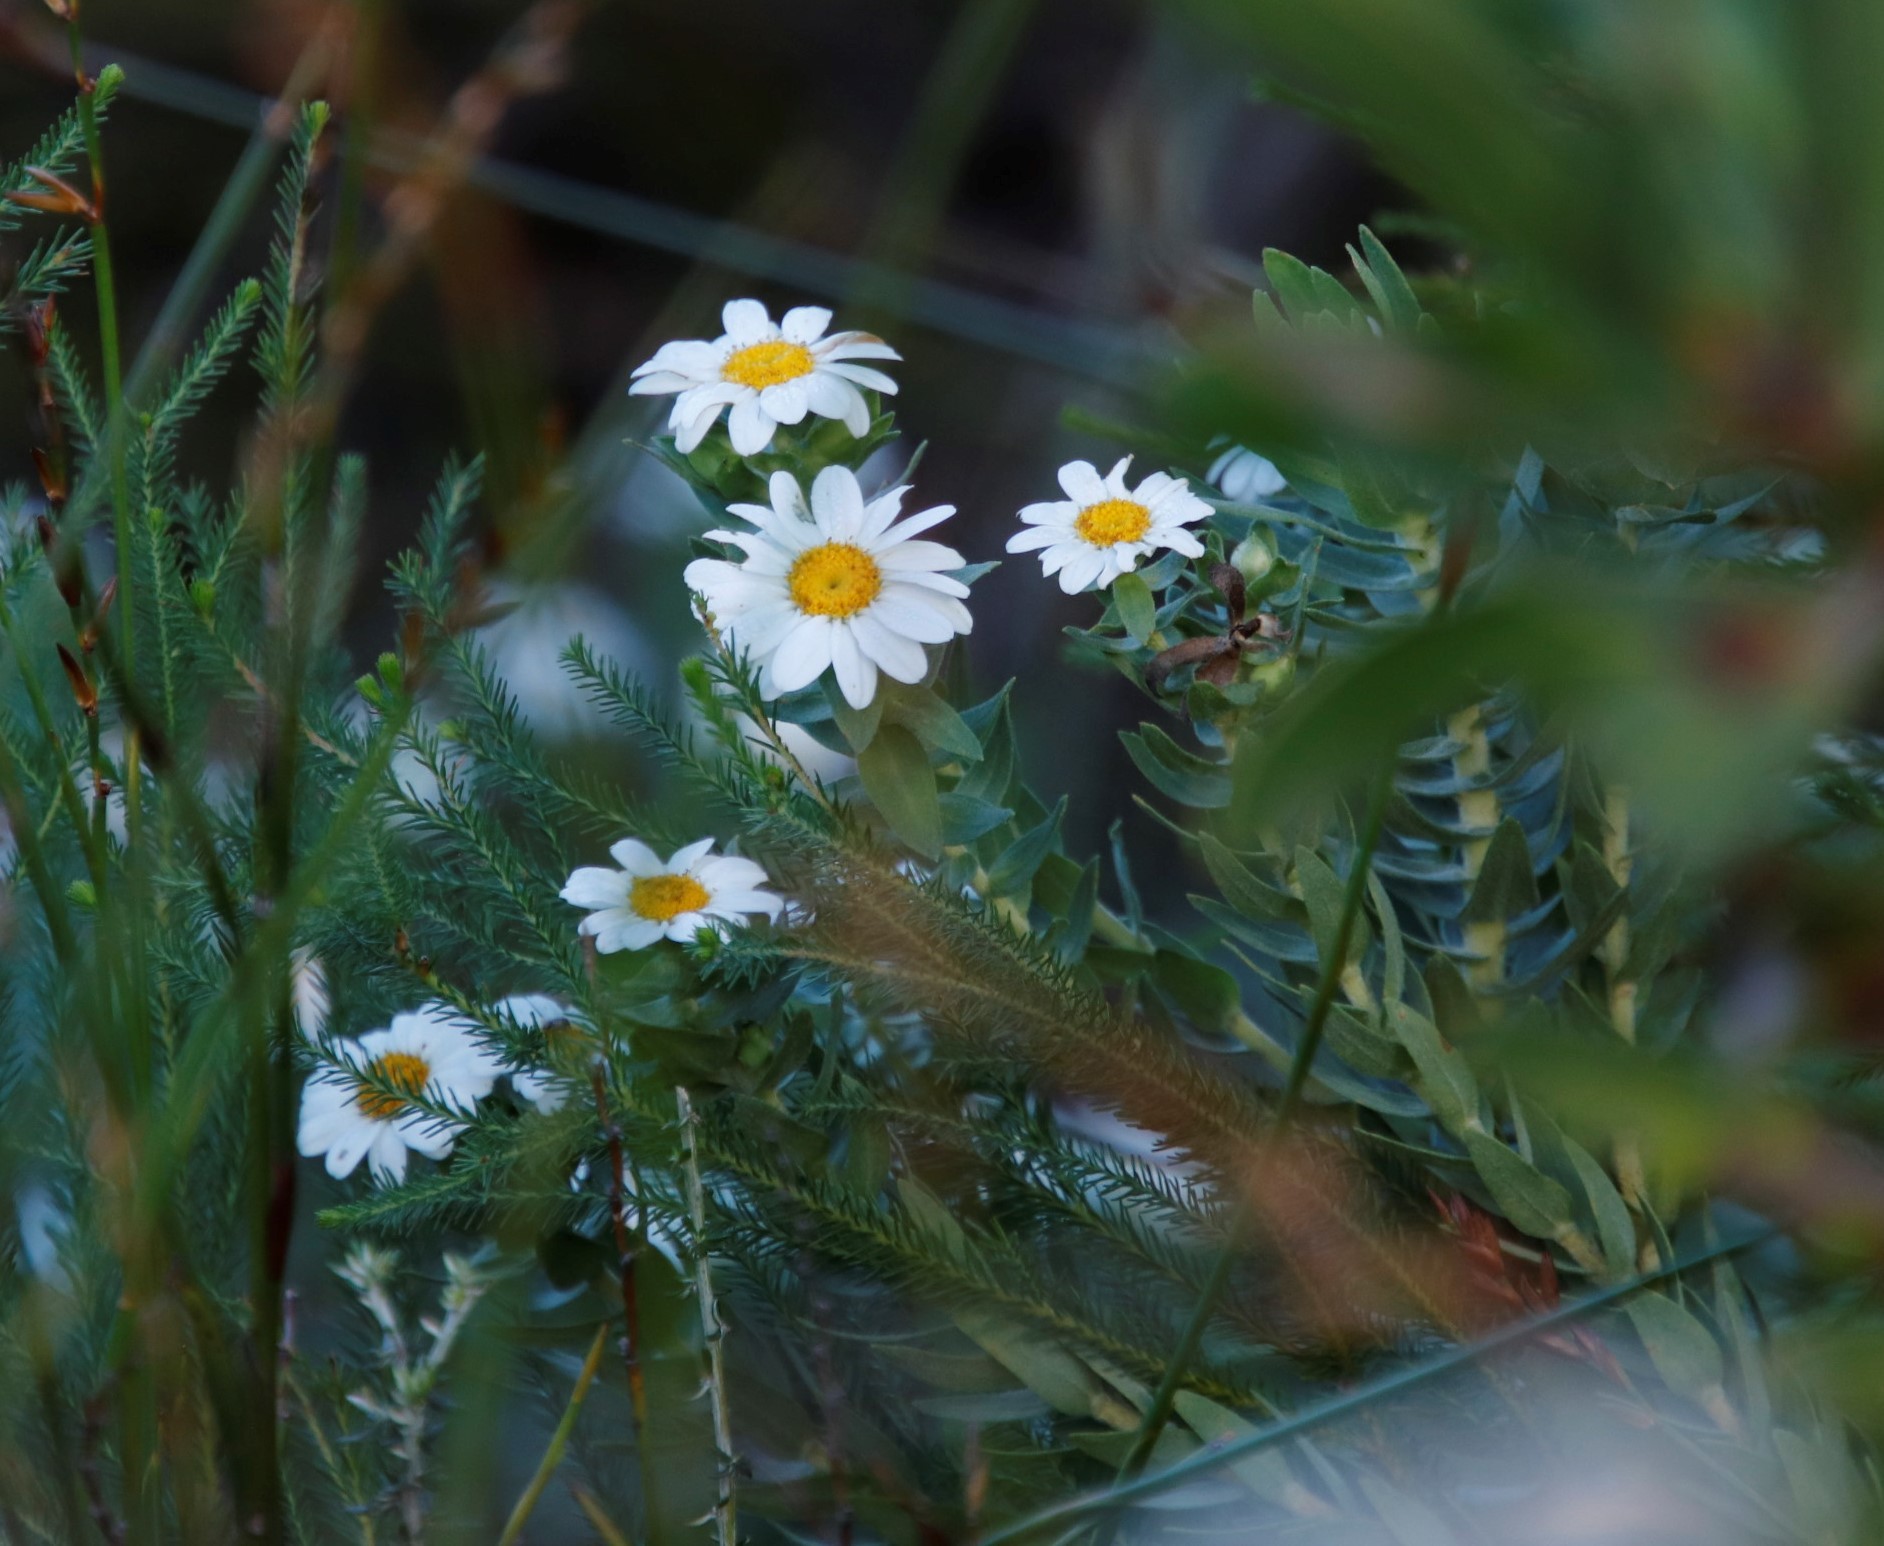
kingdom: Plantae
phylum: Tracheophyta
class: Magnoliopsida
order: Asterales
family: Asteraceae
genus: Osmitopsis
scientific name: Osmitopsis asteriscoides
